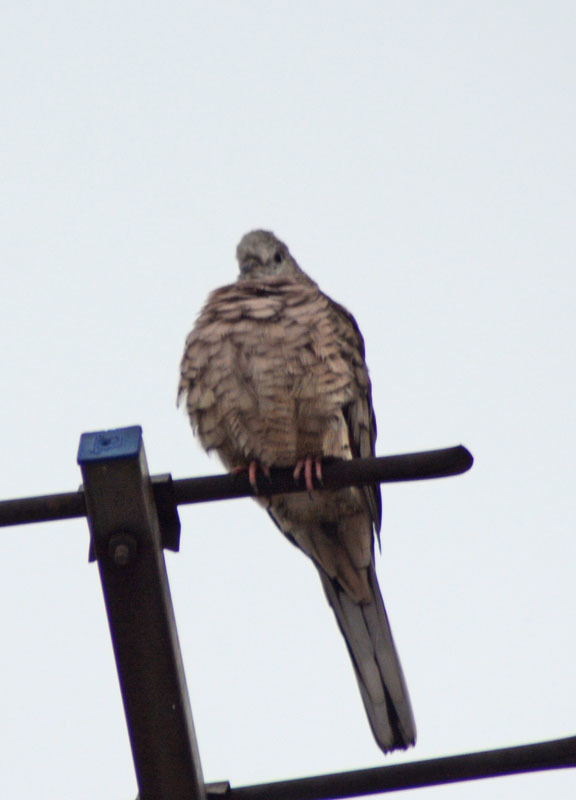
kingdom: Animalia
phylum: Chordata
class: Aves
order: Columbiformes
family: Columbidae
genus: Columbina
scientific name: Columbina inca
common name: Inca dove
